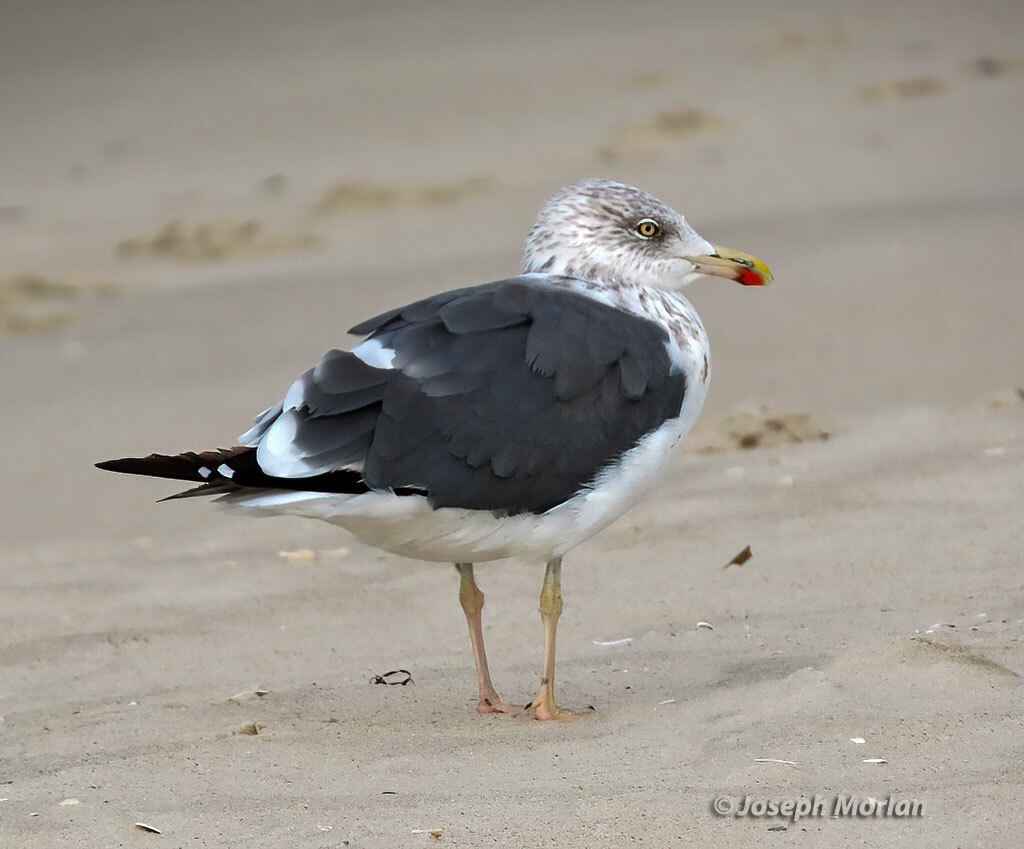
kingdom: Animalia
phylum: Chordata
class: Aves
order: Charadriiformes
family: Laridae
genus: Larus
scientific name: Larus fuscus
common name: Lesser black-backed gull
